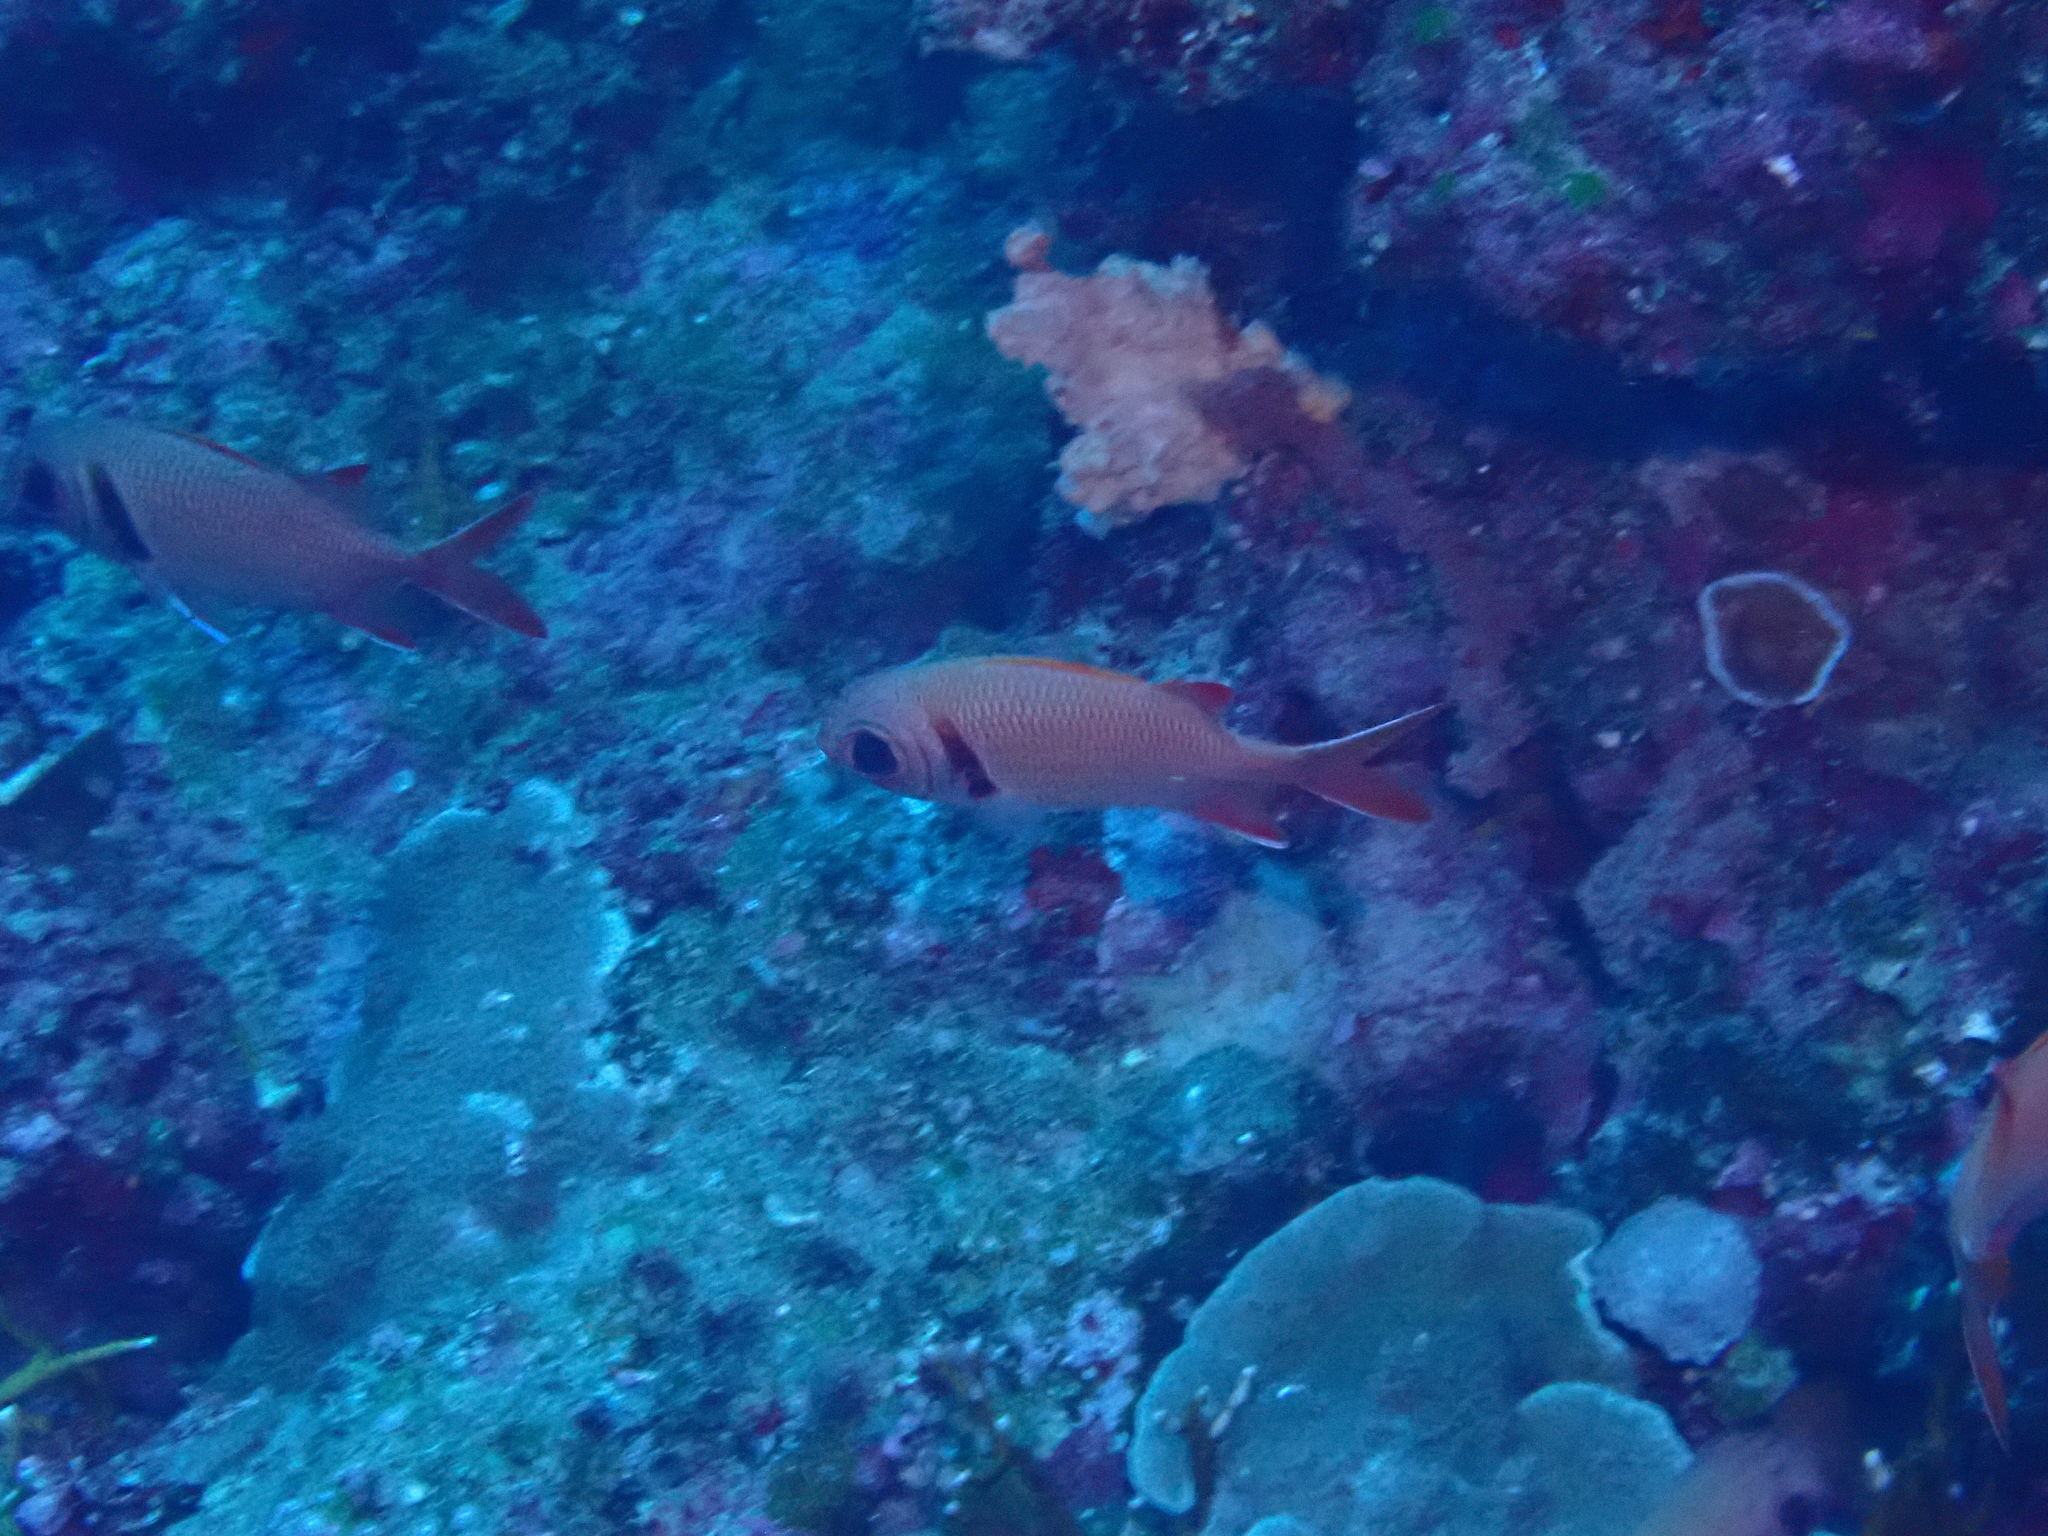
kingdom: Animalia
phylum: Chordata
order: Beryciformes
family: Holocentridae
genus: Myripristis
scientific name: Myripristis kuntee
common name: Epaulette soldierfish
